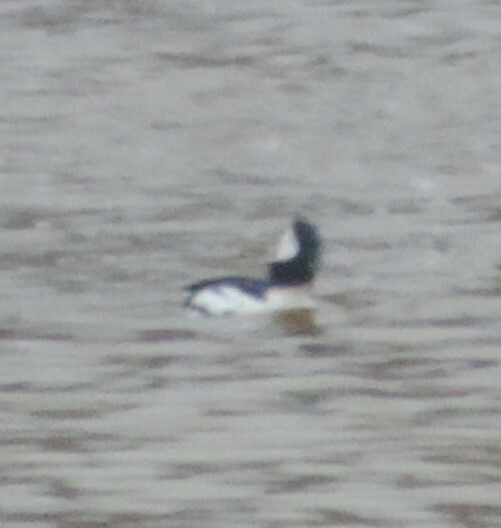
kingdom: Animalia
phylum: Chordata
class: Aves
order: Anseriformes
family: Anatidae
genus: Bucephala
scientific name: Bucephala albeola
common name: Bufflehead
